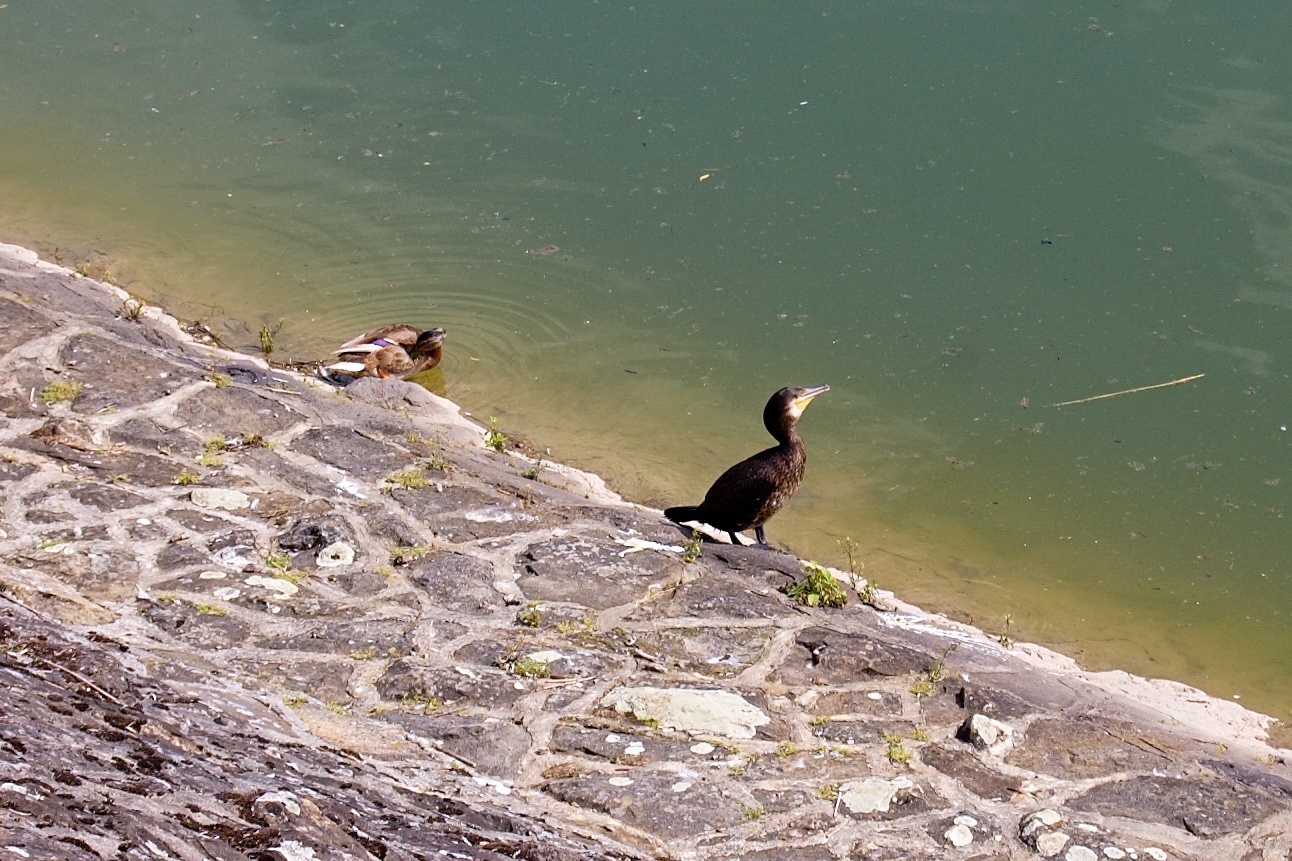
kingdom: Animalia
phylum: Chordata
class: Aves
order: Suliformes
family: Phalacrocoracidae
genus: Phalacrocorax
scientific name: Phalacrocorax carbo
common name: Great cormorant
